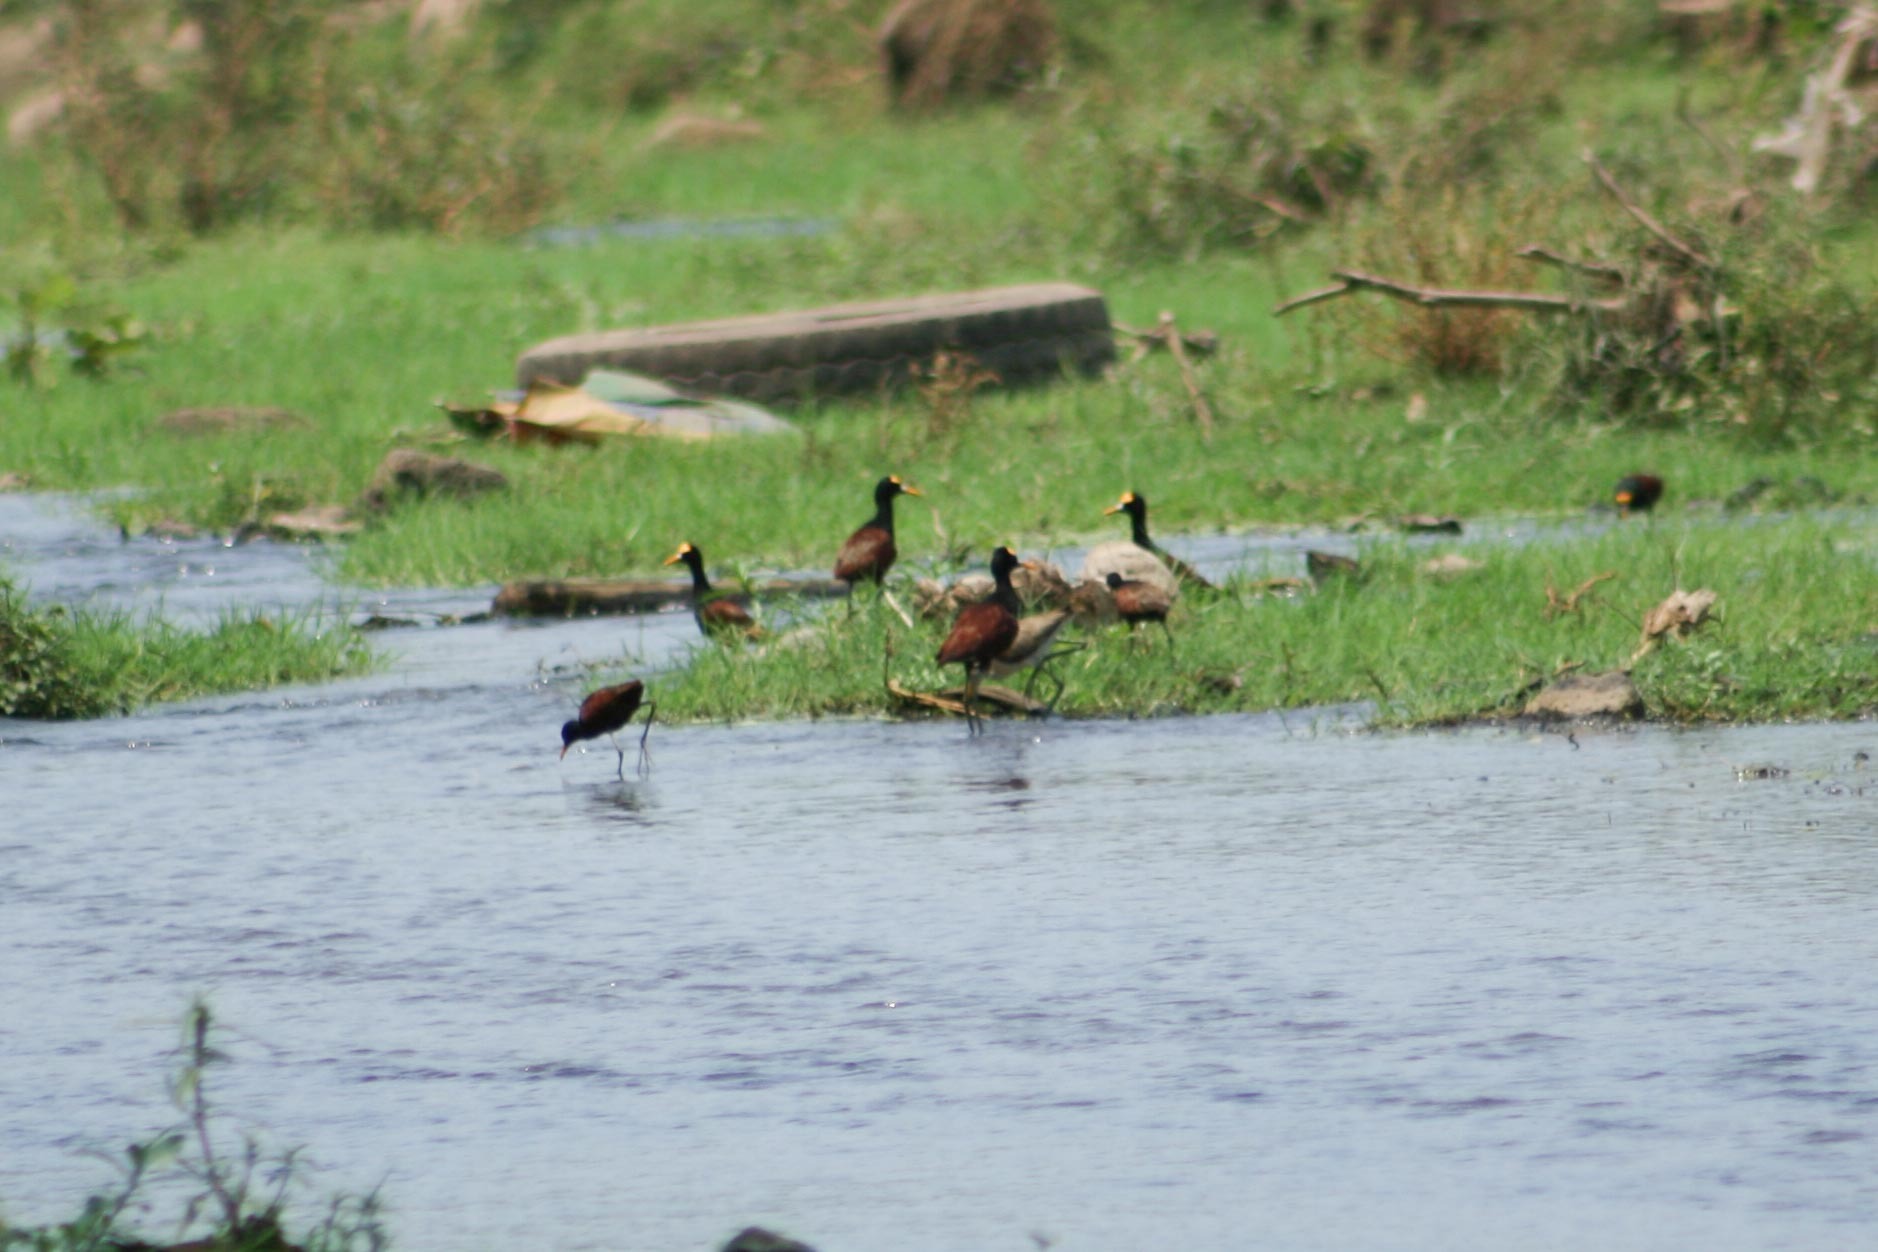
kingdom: Animalia
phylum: Chordata
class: Aves
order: Charadriiformes
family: Jacanidae
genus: Jacana
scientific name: Jacana spinosa
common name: Northern jacana
